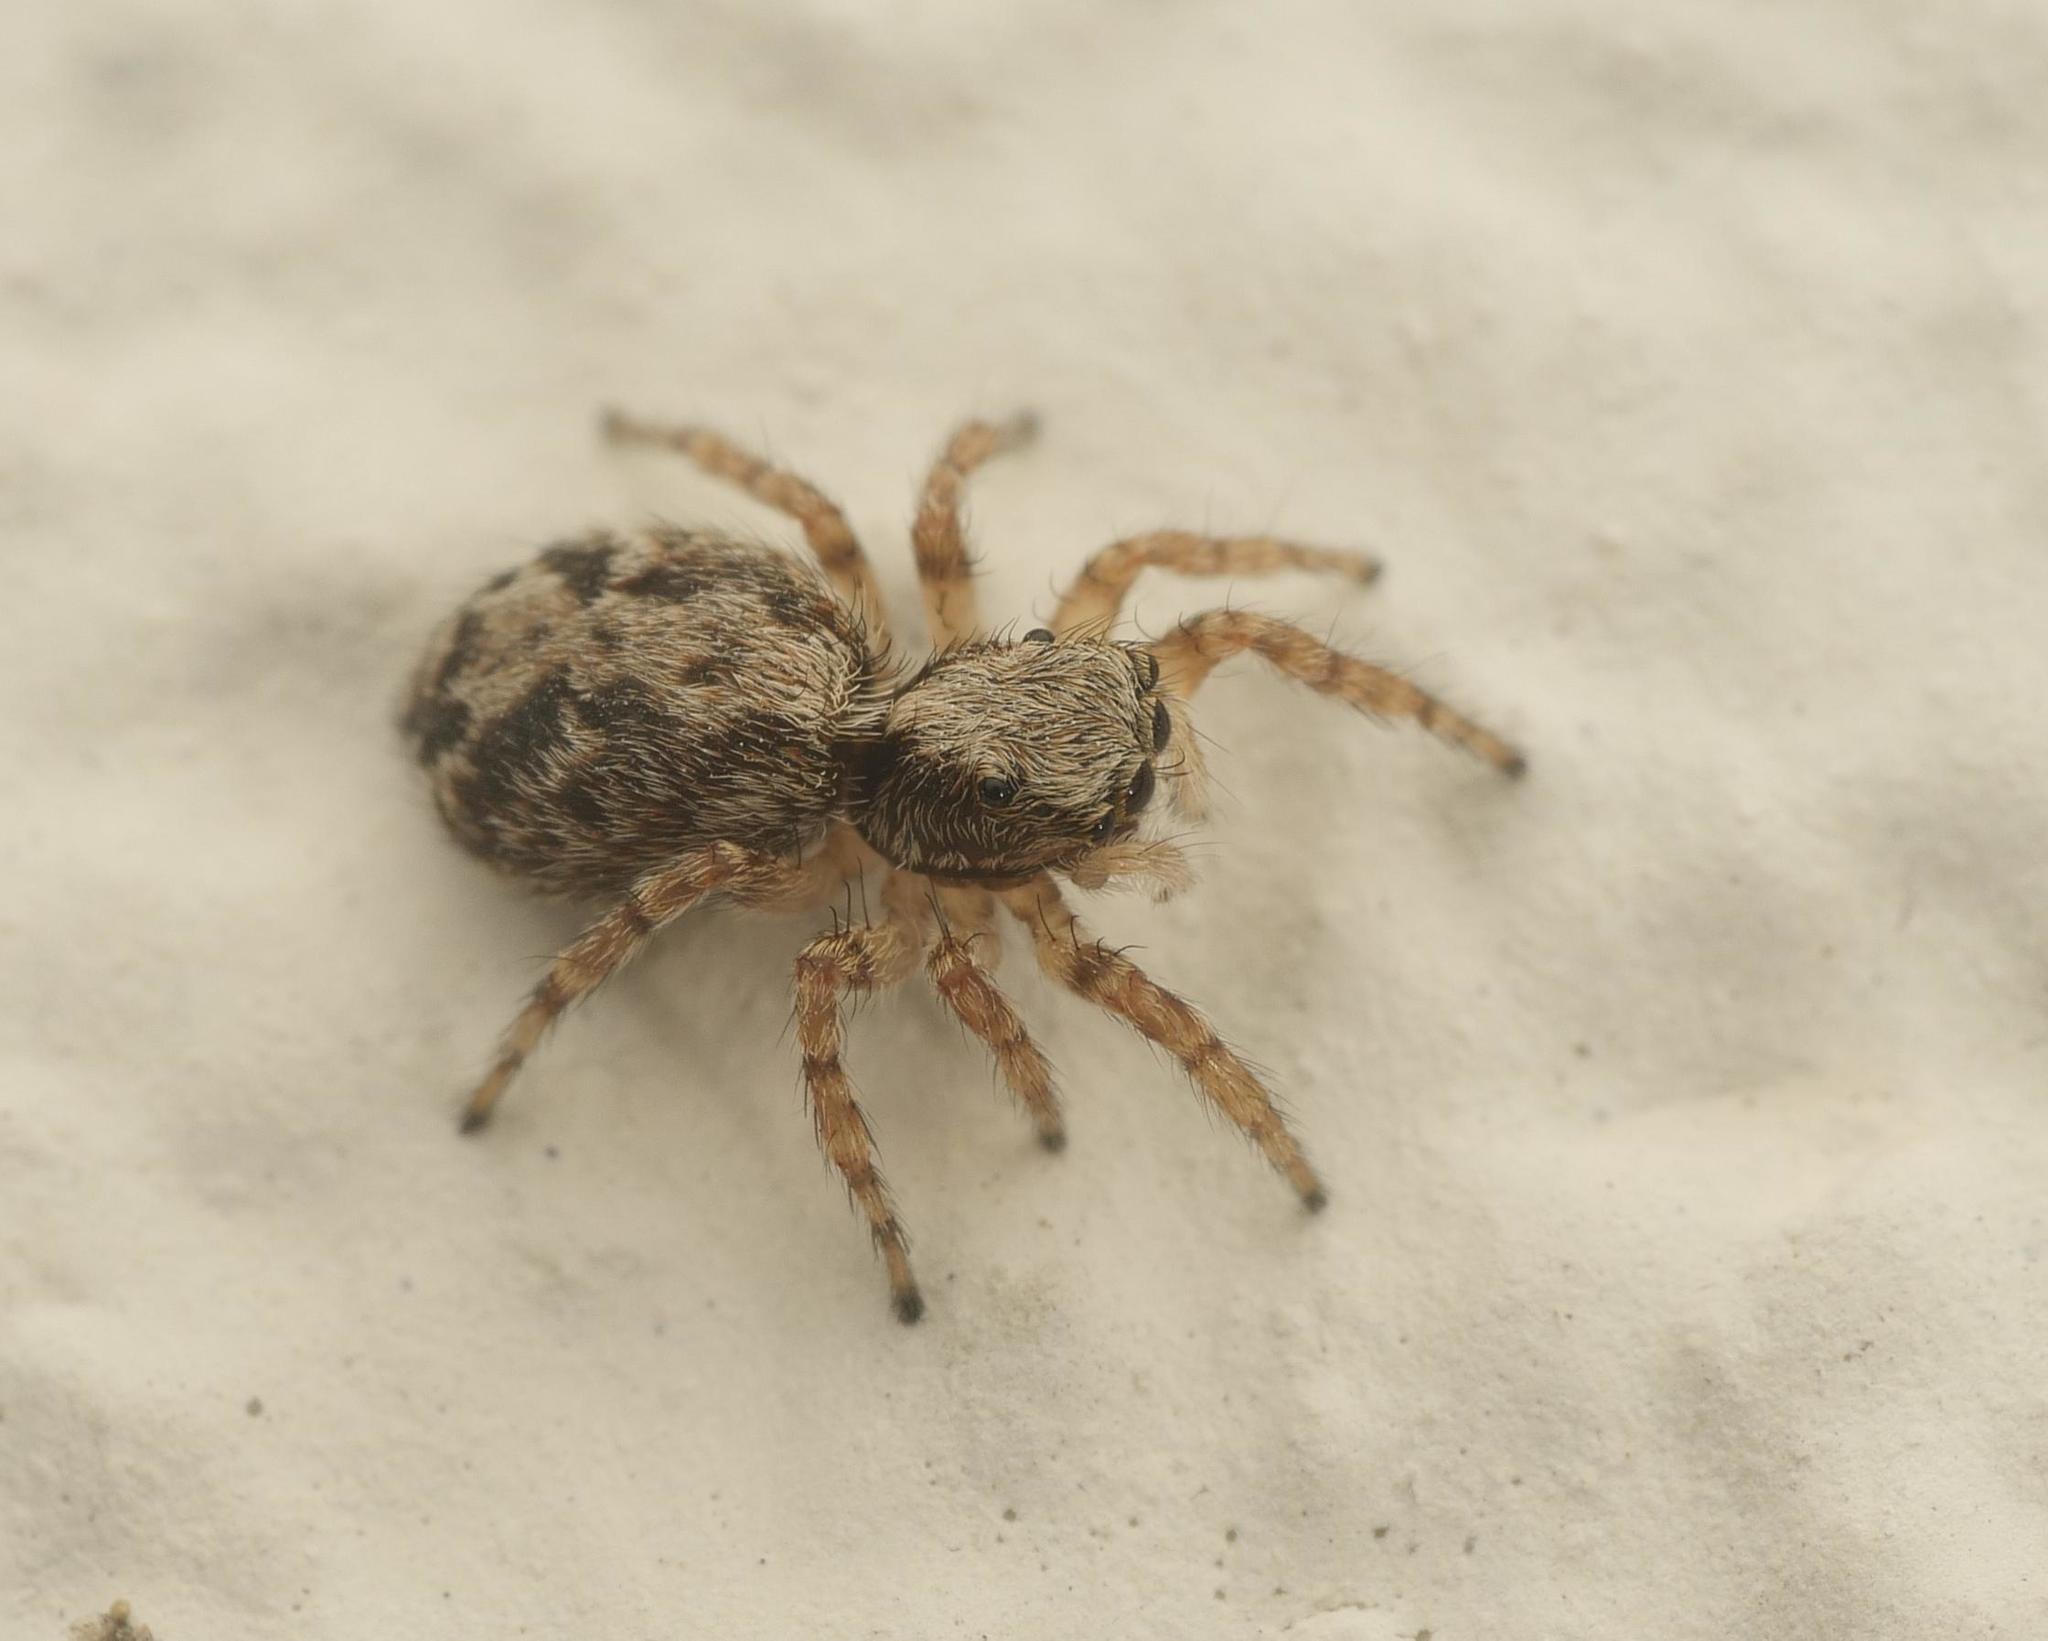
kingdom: Animalia
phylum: Arthropoda
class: Arachnida
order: Araneae
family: Salticidae
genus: Pseudeuophrys
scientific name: Pseudeuophrys lanigera
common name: Jumping spider
